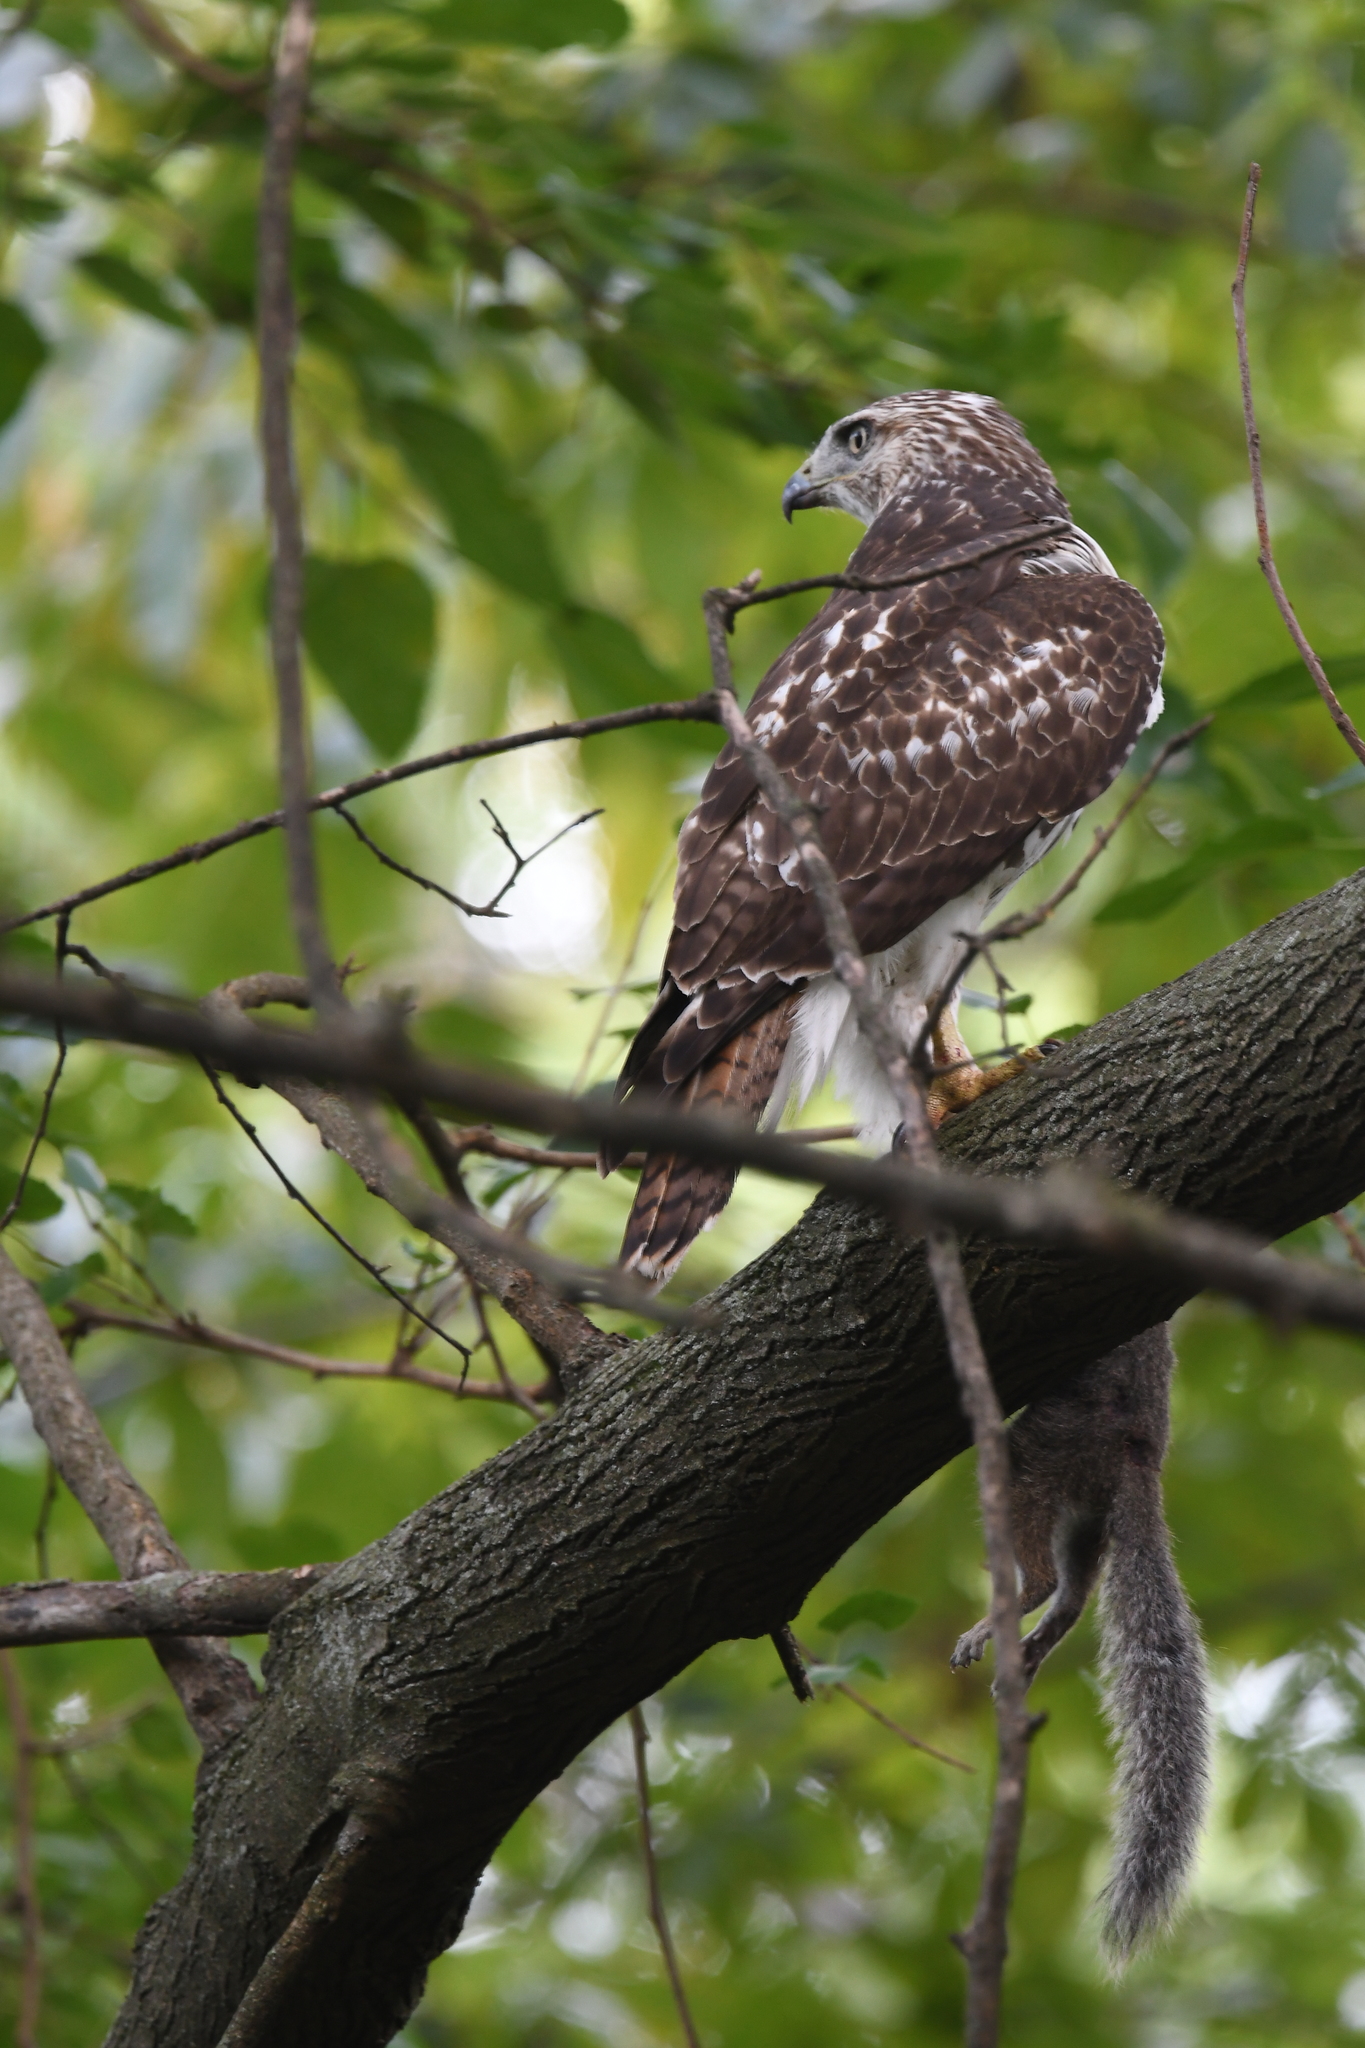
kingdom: Animalia
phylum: Chordata
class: Aves
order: Accipitriformes
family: Accipitridae
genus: Buteo
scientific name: Buteo jamaicensis
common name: Red-tailed hawk
